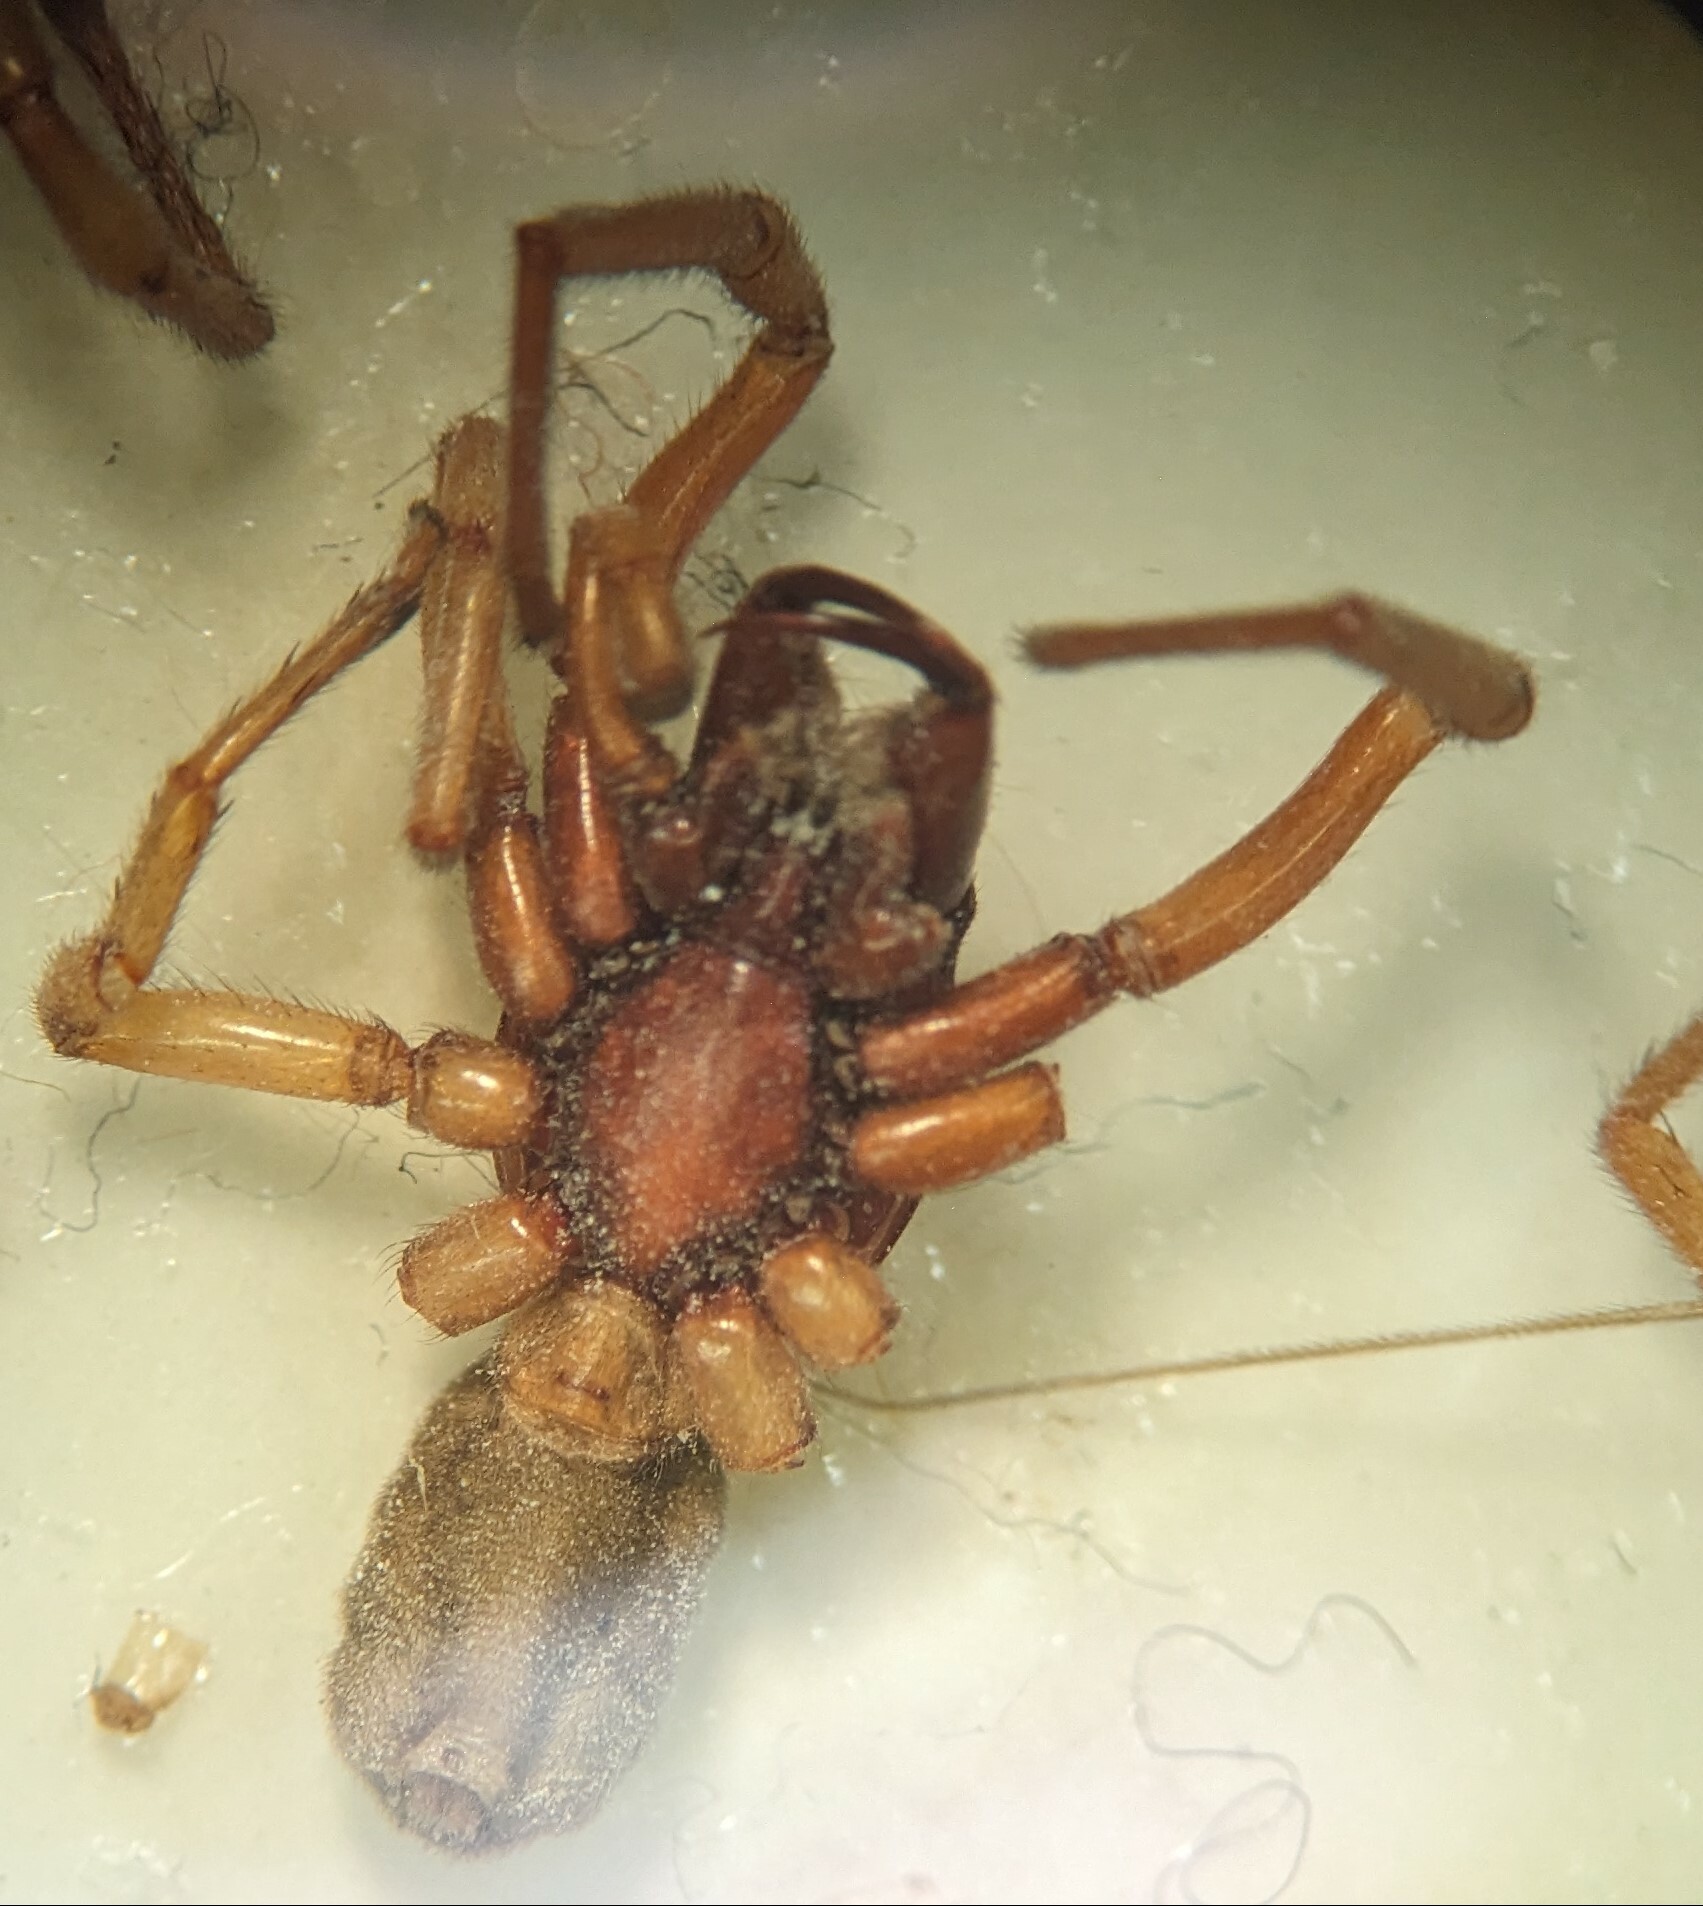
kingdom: Animalia
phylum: Arthropoda
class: Arachnida
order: Araneae
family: Dysderidae
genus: Dysdera
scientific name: Dysdera crocata
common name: Woodlouse spider
